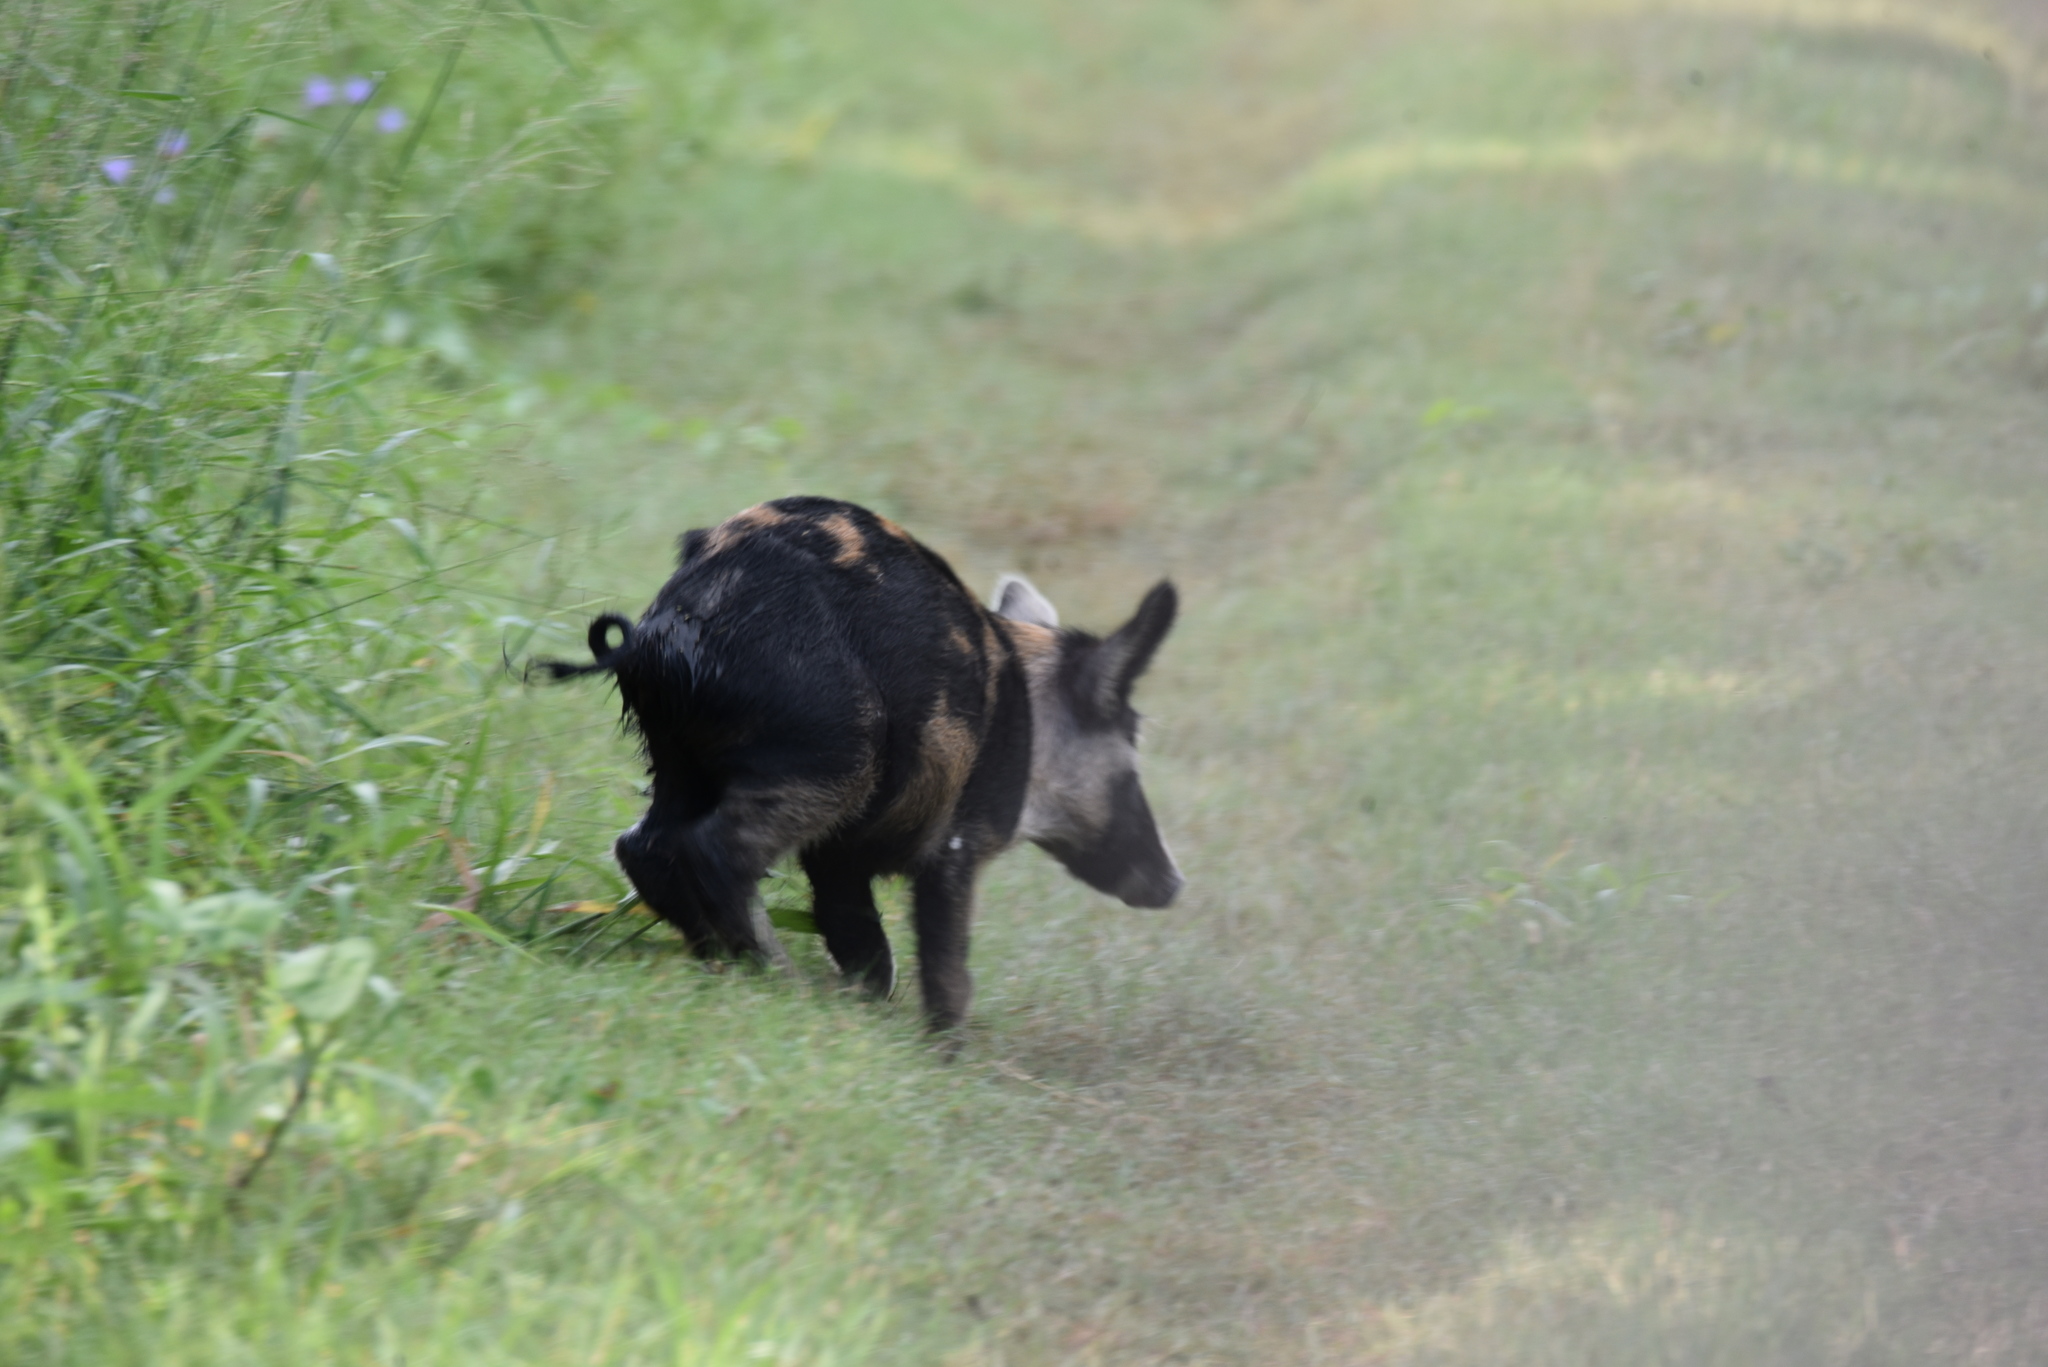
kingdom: Animalia
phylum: Chordata
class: Mammalia
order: Artiodactyla
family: Suidae
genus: Sus
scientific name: Sus scrofa
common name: Wild boar
